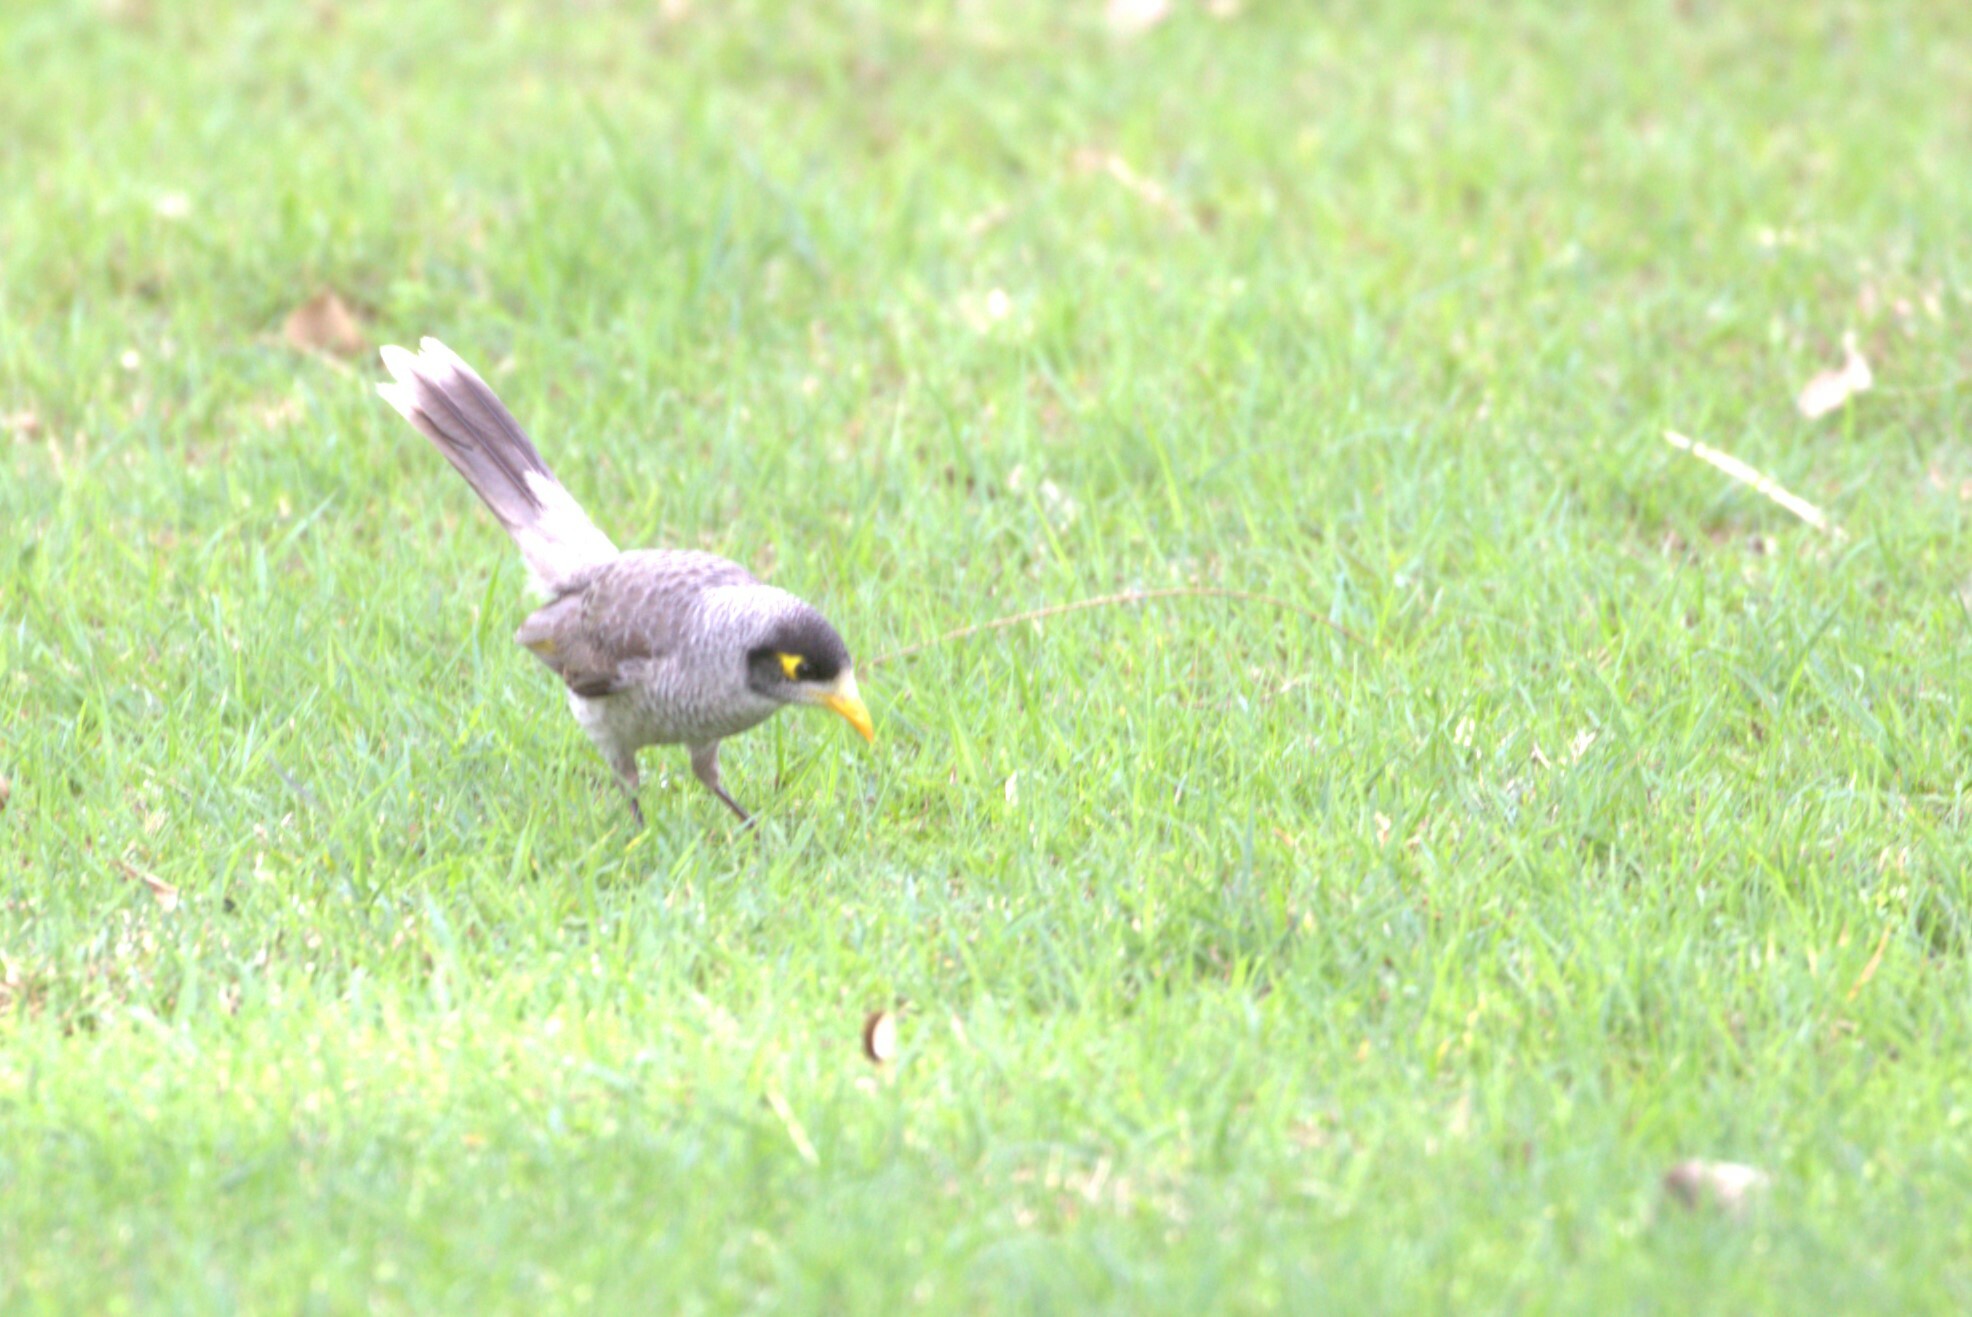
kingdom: Animalia
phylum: Chordata
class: Aves
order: Passeriformes
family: Meliphagidae
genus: Manorina
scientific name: Manorina melanocephala
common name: Noisy miner
